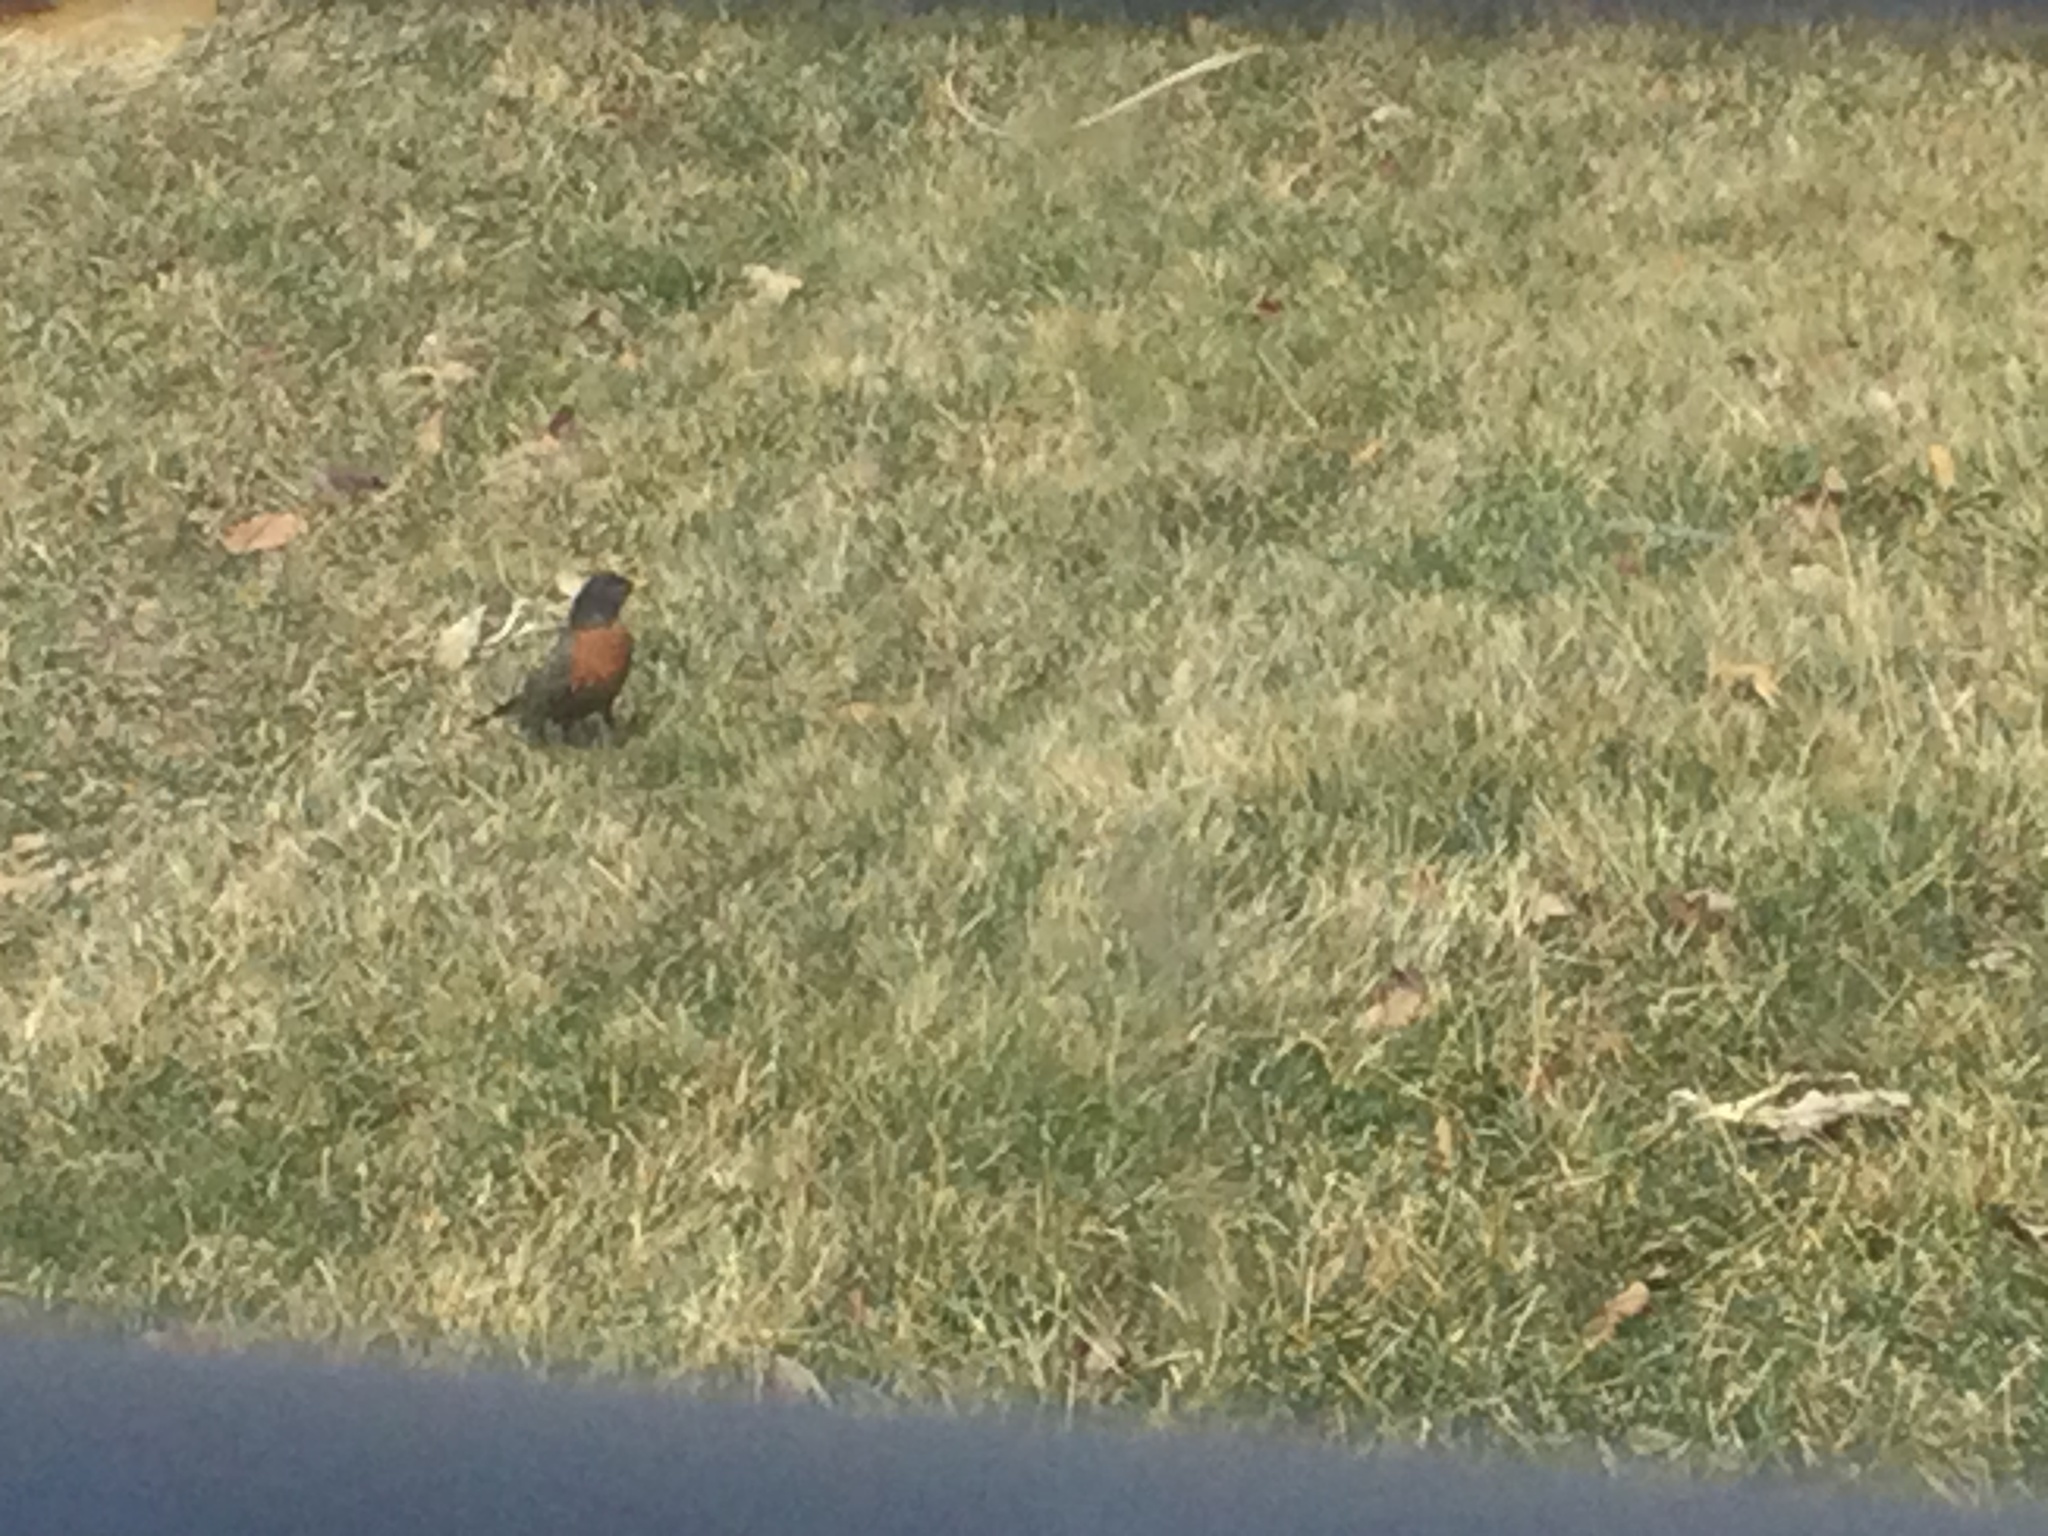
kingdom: Animalia
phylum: Chordata
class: Aves
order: Passeriformes
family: Turdidae
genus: Turdus
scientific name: Turdus migratorius
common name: American robin
